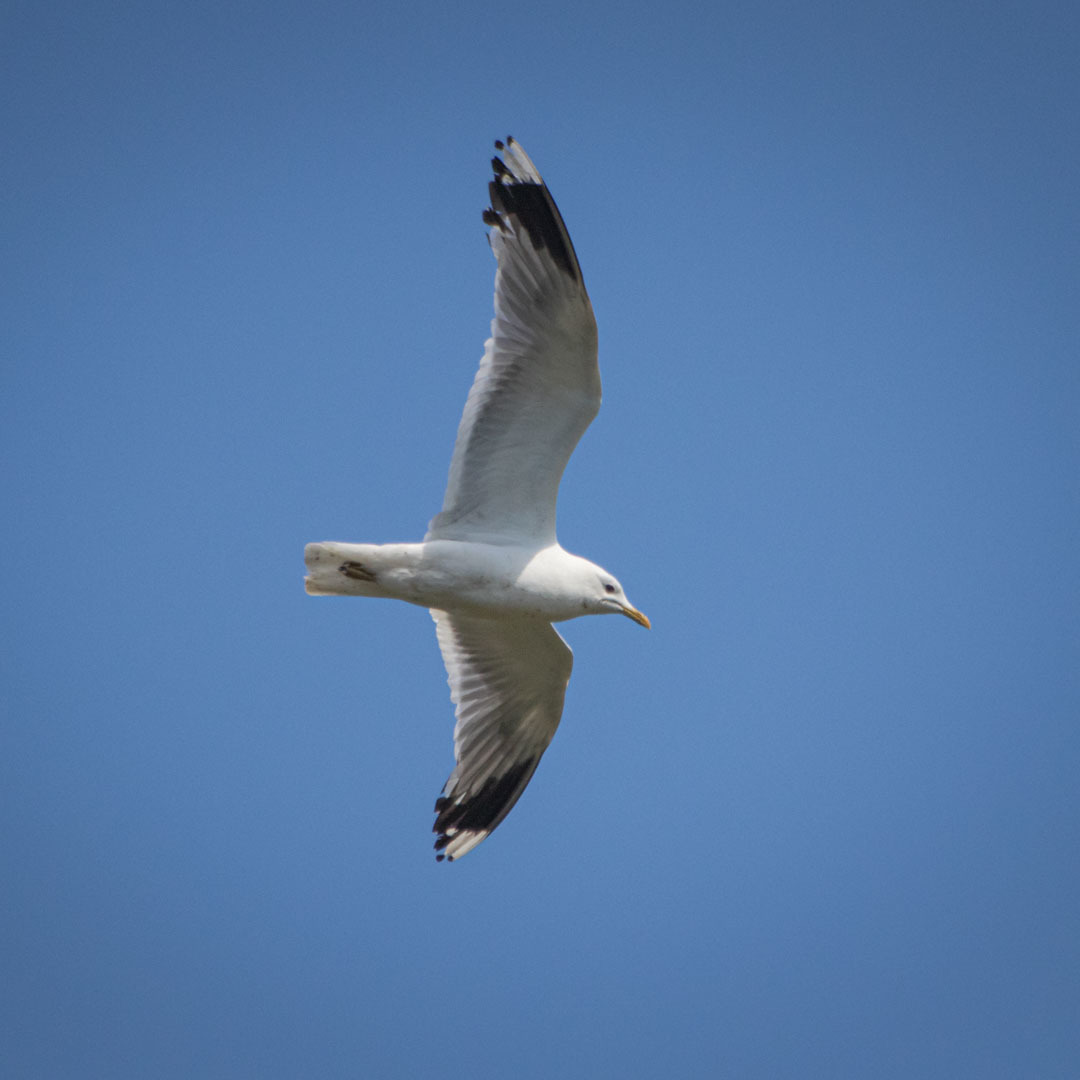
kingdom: Animalia
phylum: Chordata
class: Aves
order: Charadriiformes
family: Laridae
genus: Larus
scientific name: Larus canus
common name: Mew gull
